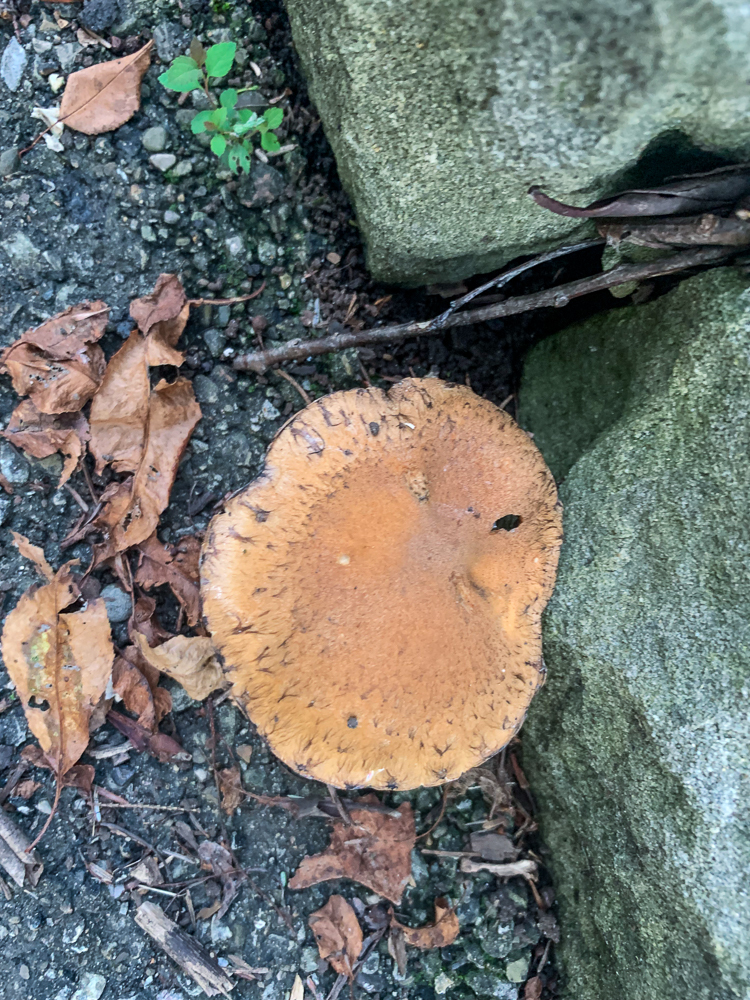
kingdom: Fungi
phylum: Basidiomycota
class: Agaricomycetes
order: Agaricales
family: Psathyrellaceae
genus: Lacrymaria
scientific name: Lacrymaria lacrymabunda
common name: Weeping widow
